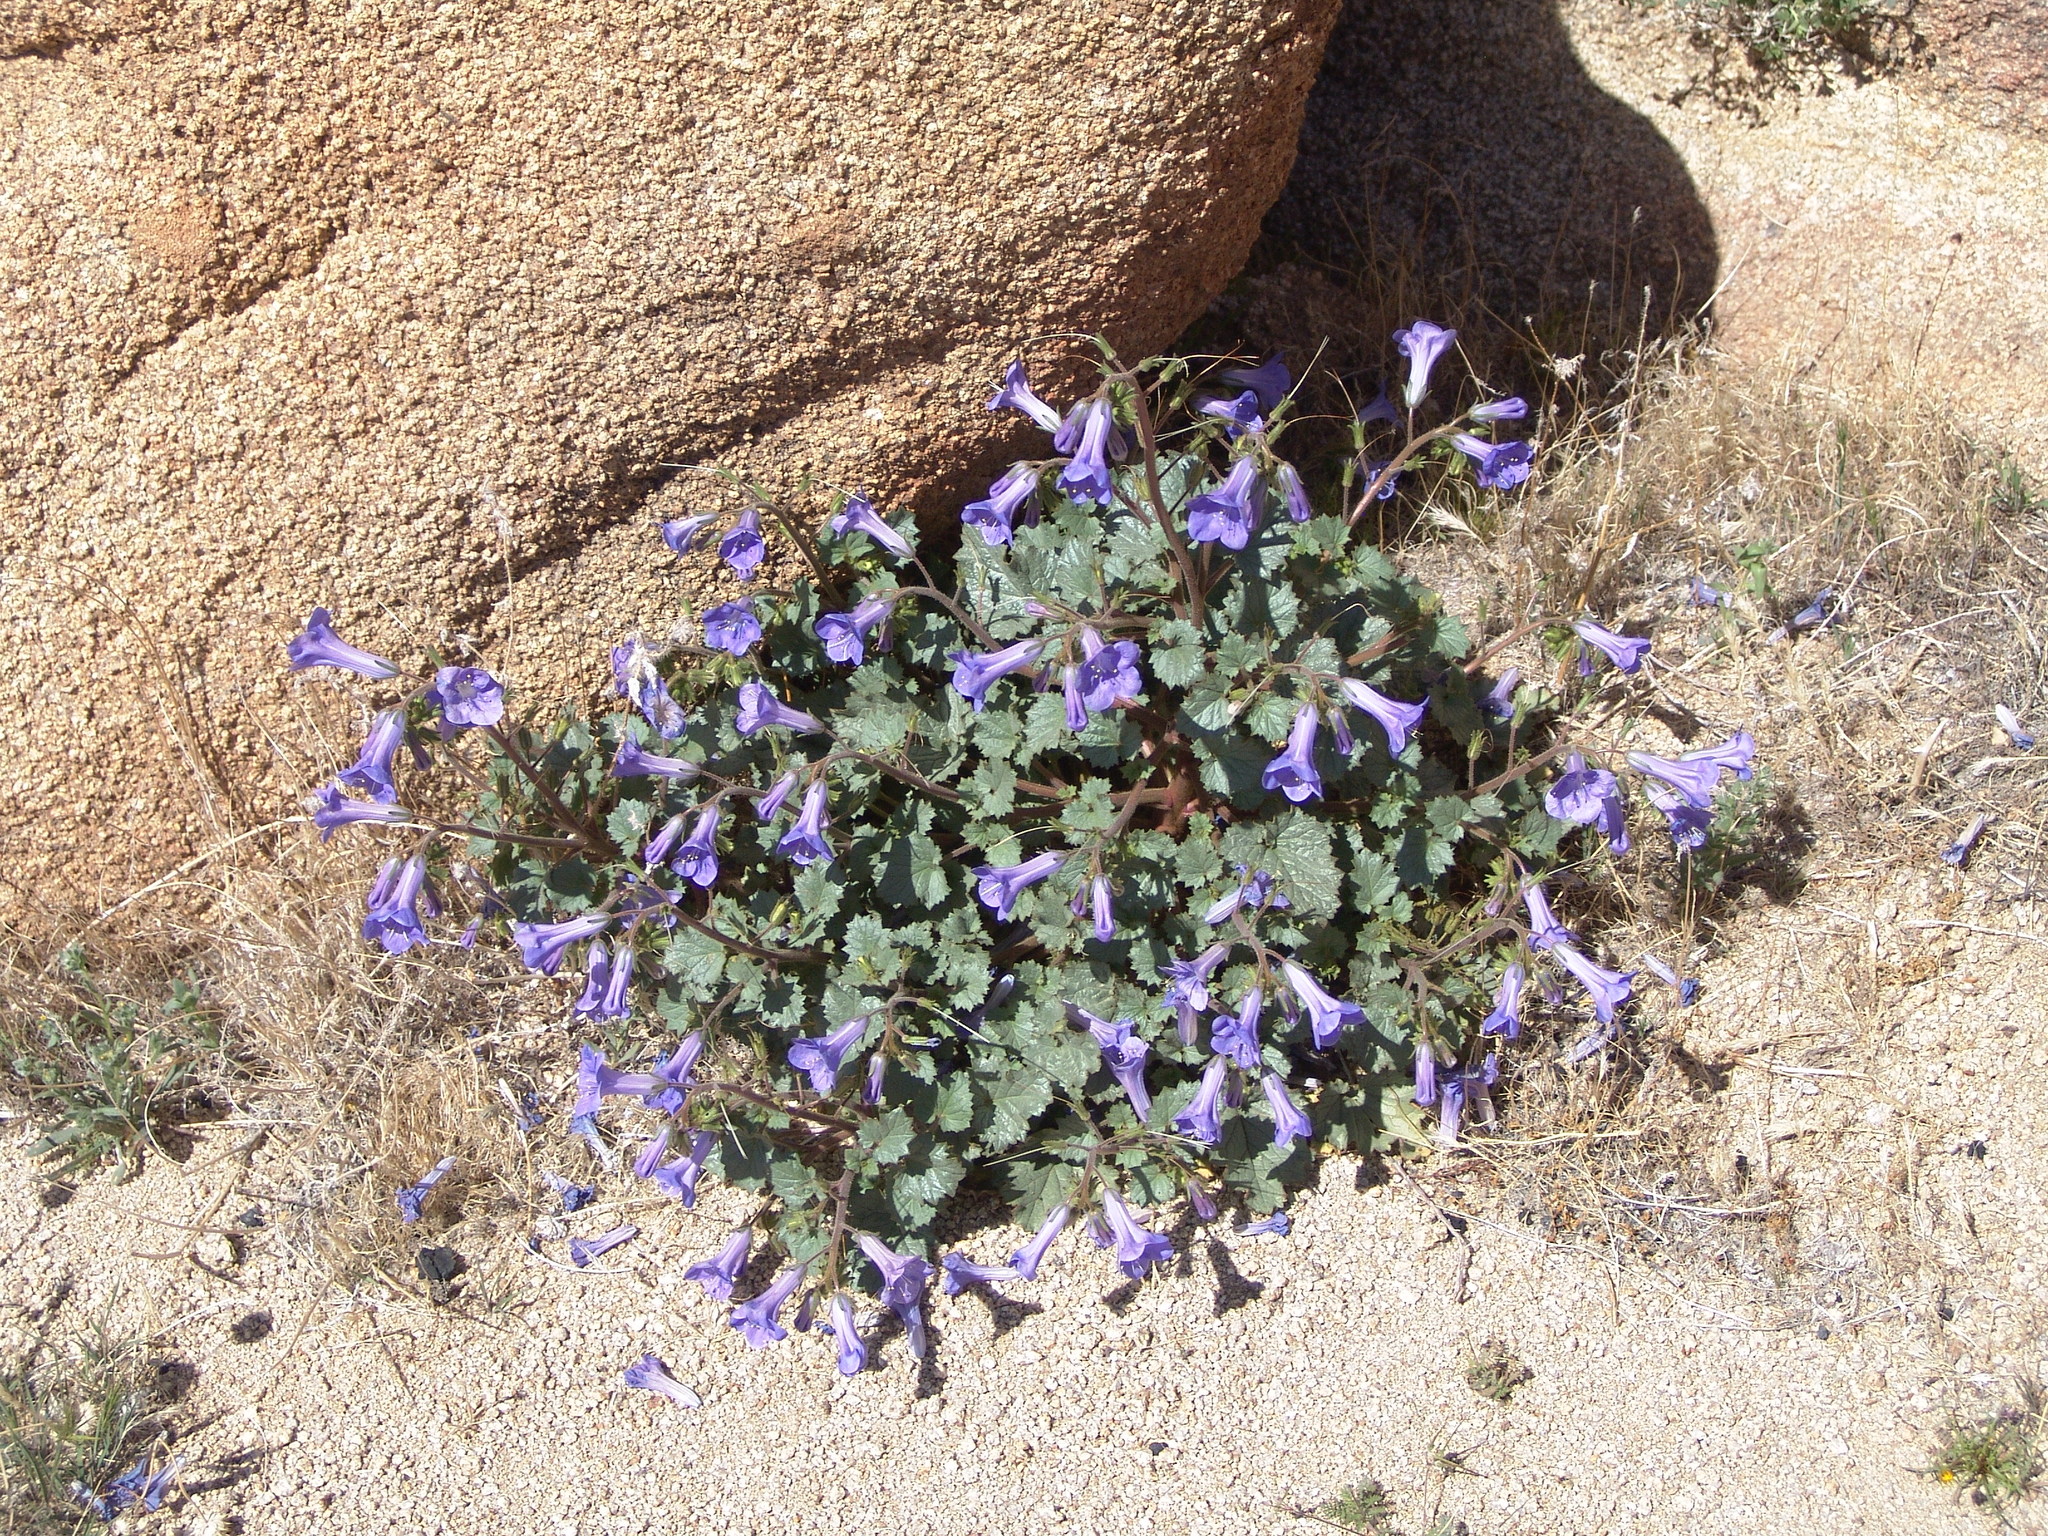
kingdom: Plantae
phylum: Tracheophyta
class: Magnoliopsida
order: Boraginales
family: Hydrophyllaceae
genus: Phacelia
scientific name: Phacelia campanularia
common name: California bluebell
